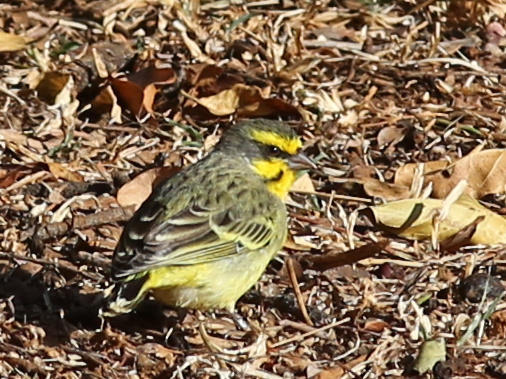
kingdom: Animalia
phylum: Chordata
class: Aves
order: Passeriformes
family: Fringillidae
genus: Crithagra
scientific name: Crithagra mozambica
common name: Yellow-fronted canary
